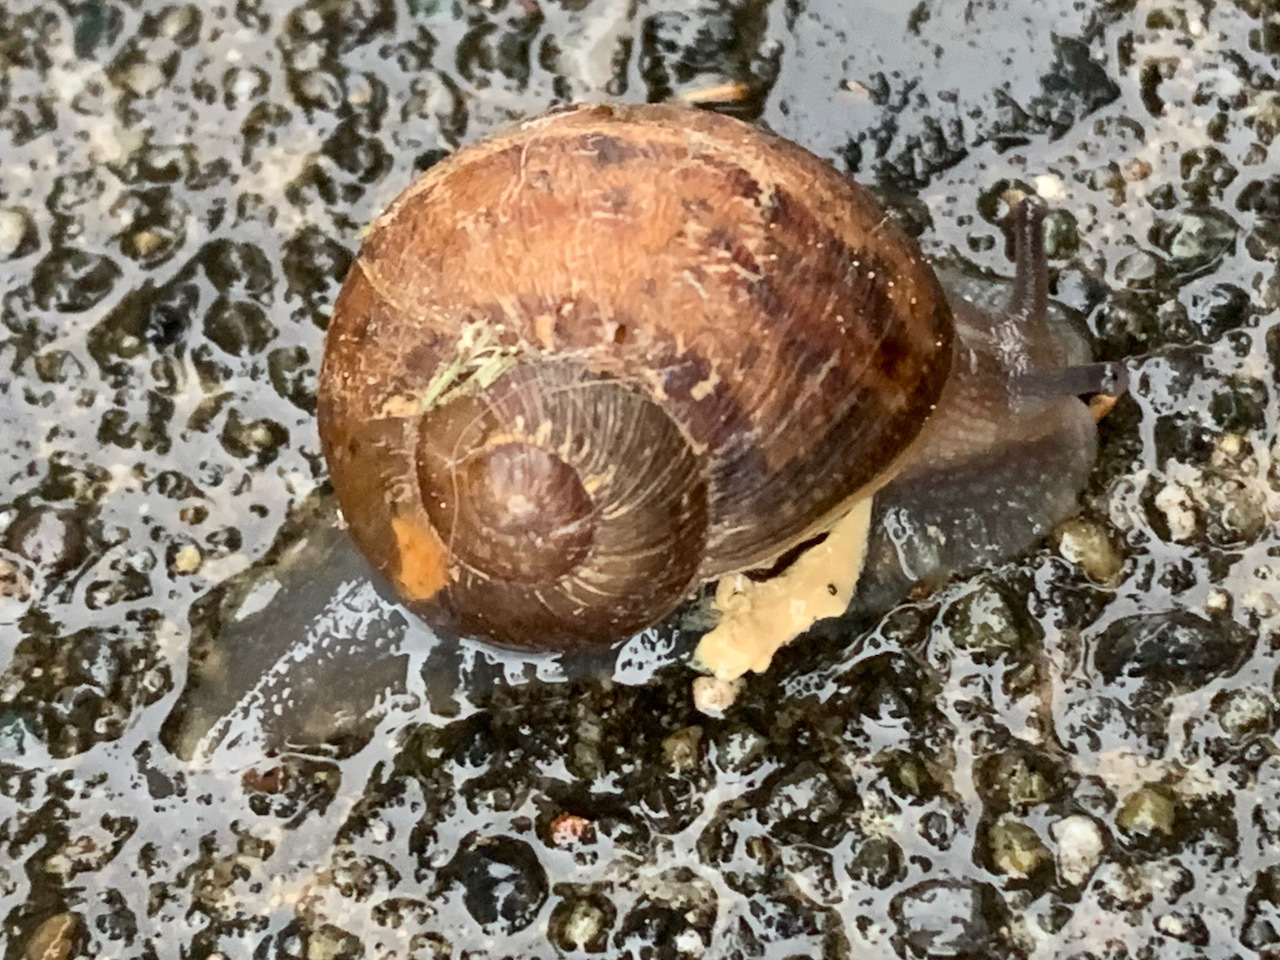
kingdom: Animalia
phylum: Mollusca
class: Gastropoda
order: Stylommatophora
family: Helicidae
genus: Cornu
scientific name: Cornu aspersum
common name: Brown garden snail
